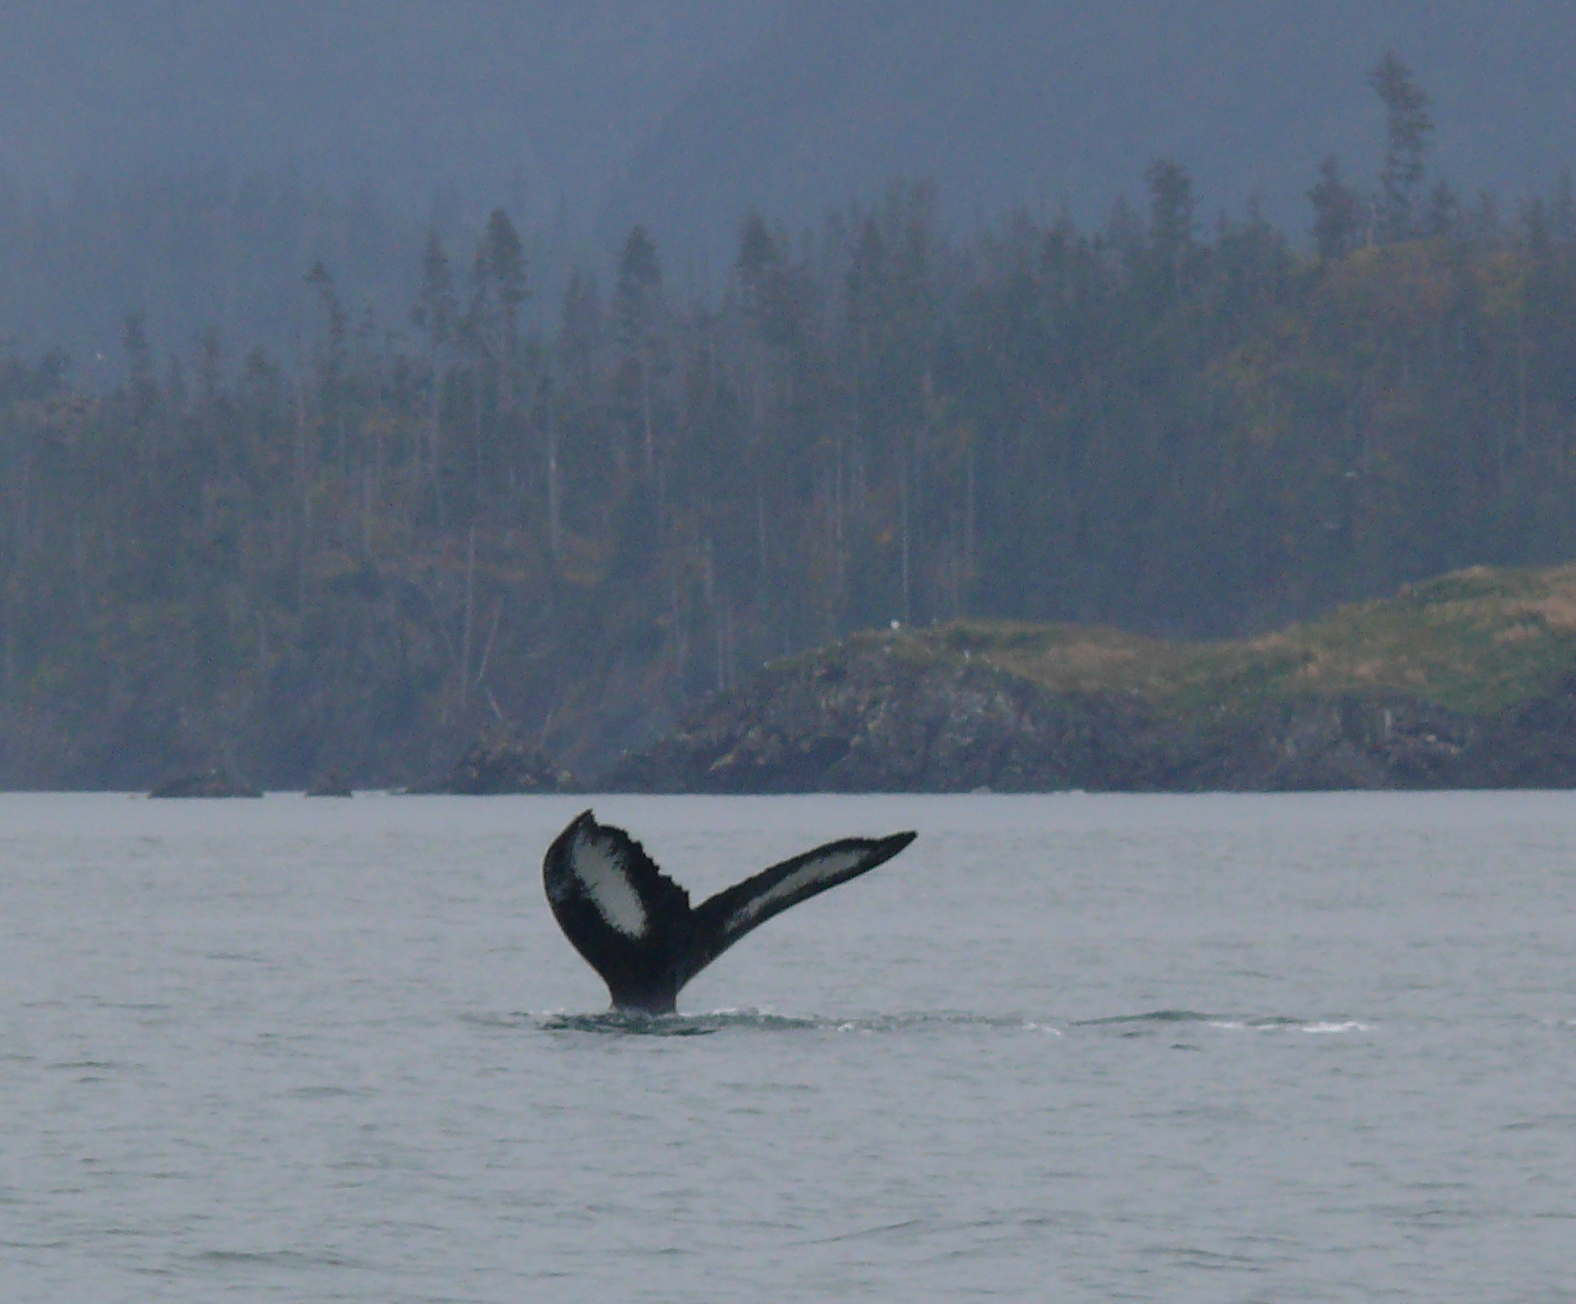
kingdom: Animalia
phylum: Chordata
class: Mammalia
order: Cetacea
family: Balaenopteridae
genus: Megaptera
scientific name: Megaptera novaeangliae
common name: Humpback whale
